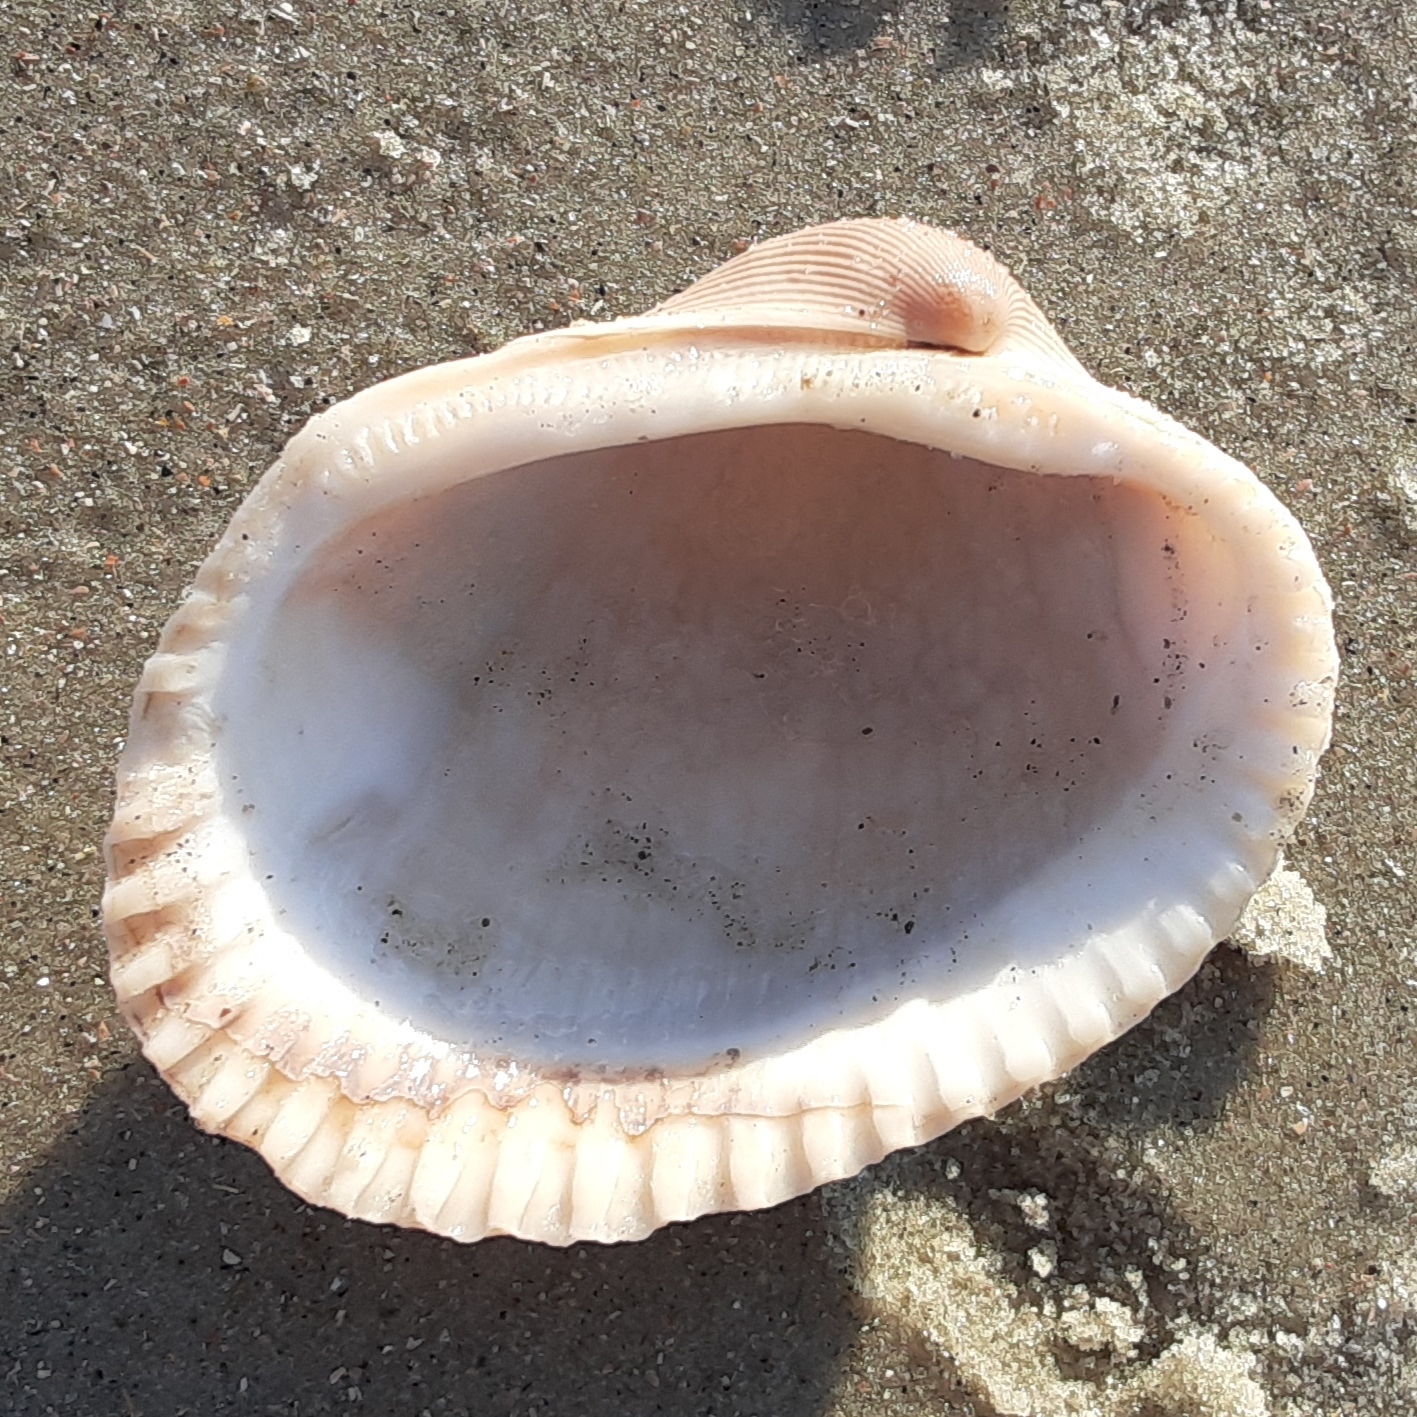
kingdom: Animalia
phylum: Mollusca
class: Bivalvia
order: Arcida
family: Arcidae
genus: Lunarca
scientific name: Lunarca ovalis
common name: Blood ark
